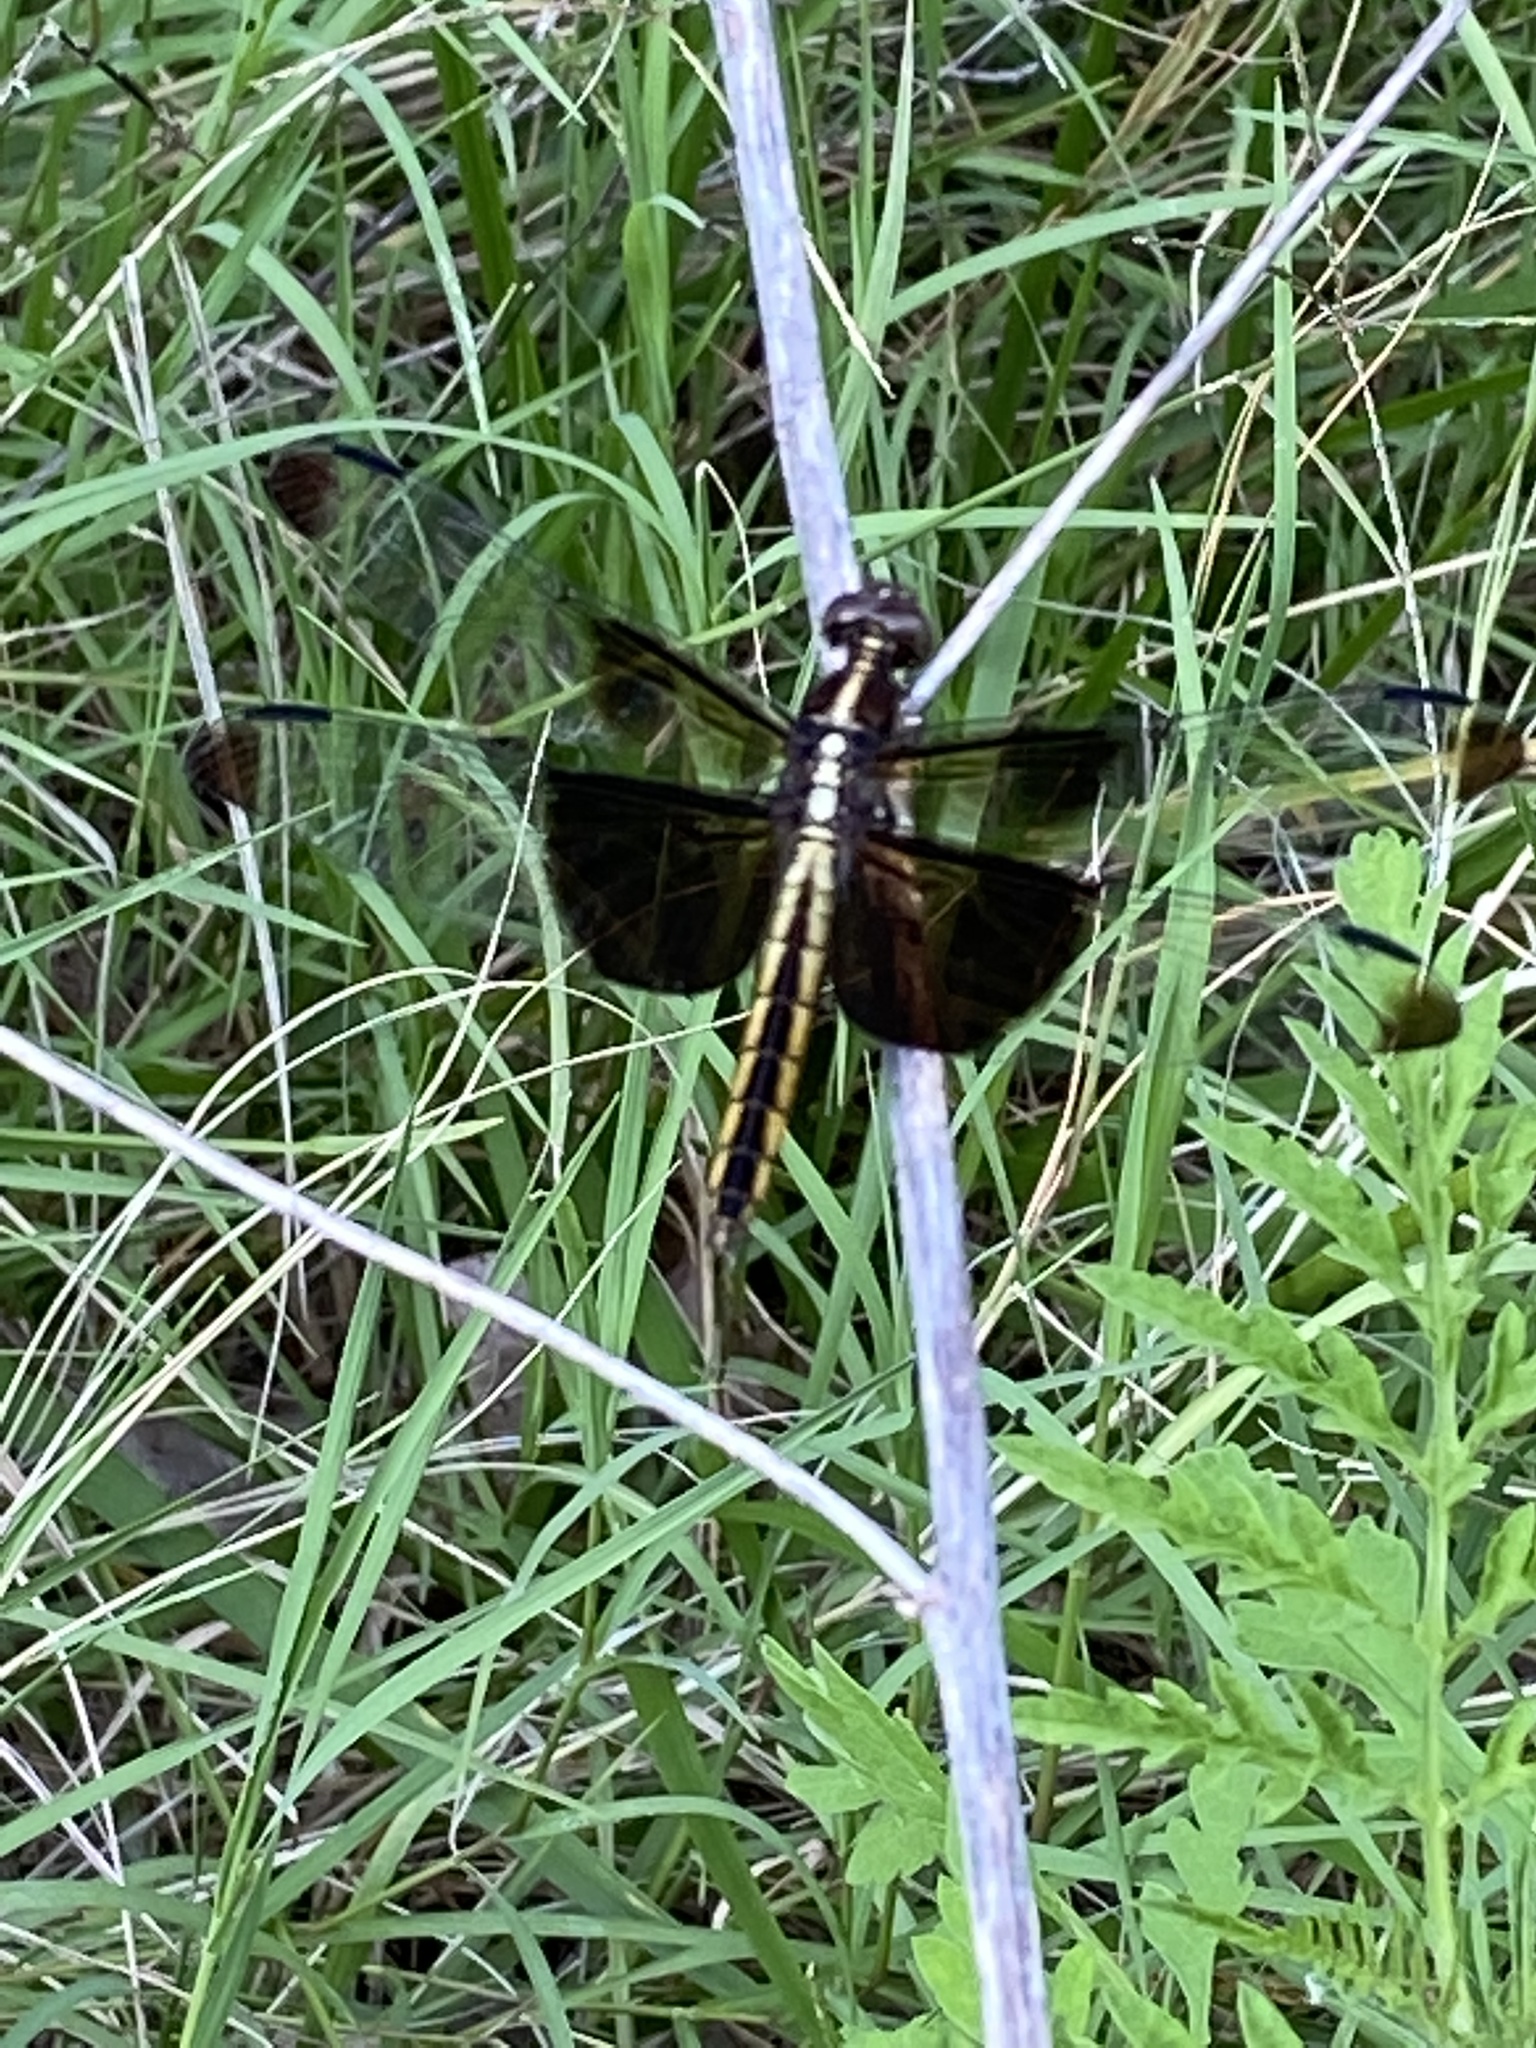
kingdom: Animalia
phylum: Arthropoda
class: Insecta
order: Odonata
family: Libellulidae
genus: Libellula
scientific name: Libellula luctuosa
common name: Widow skimmer
